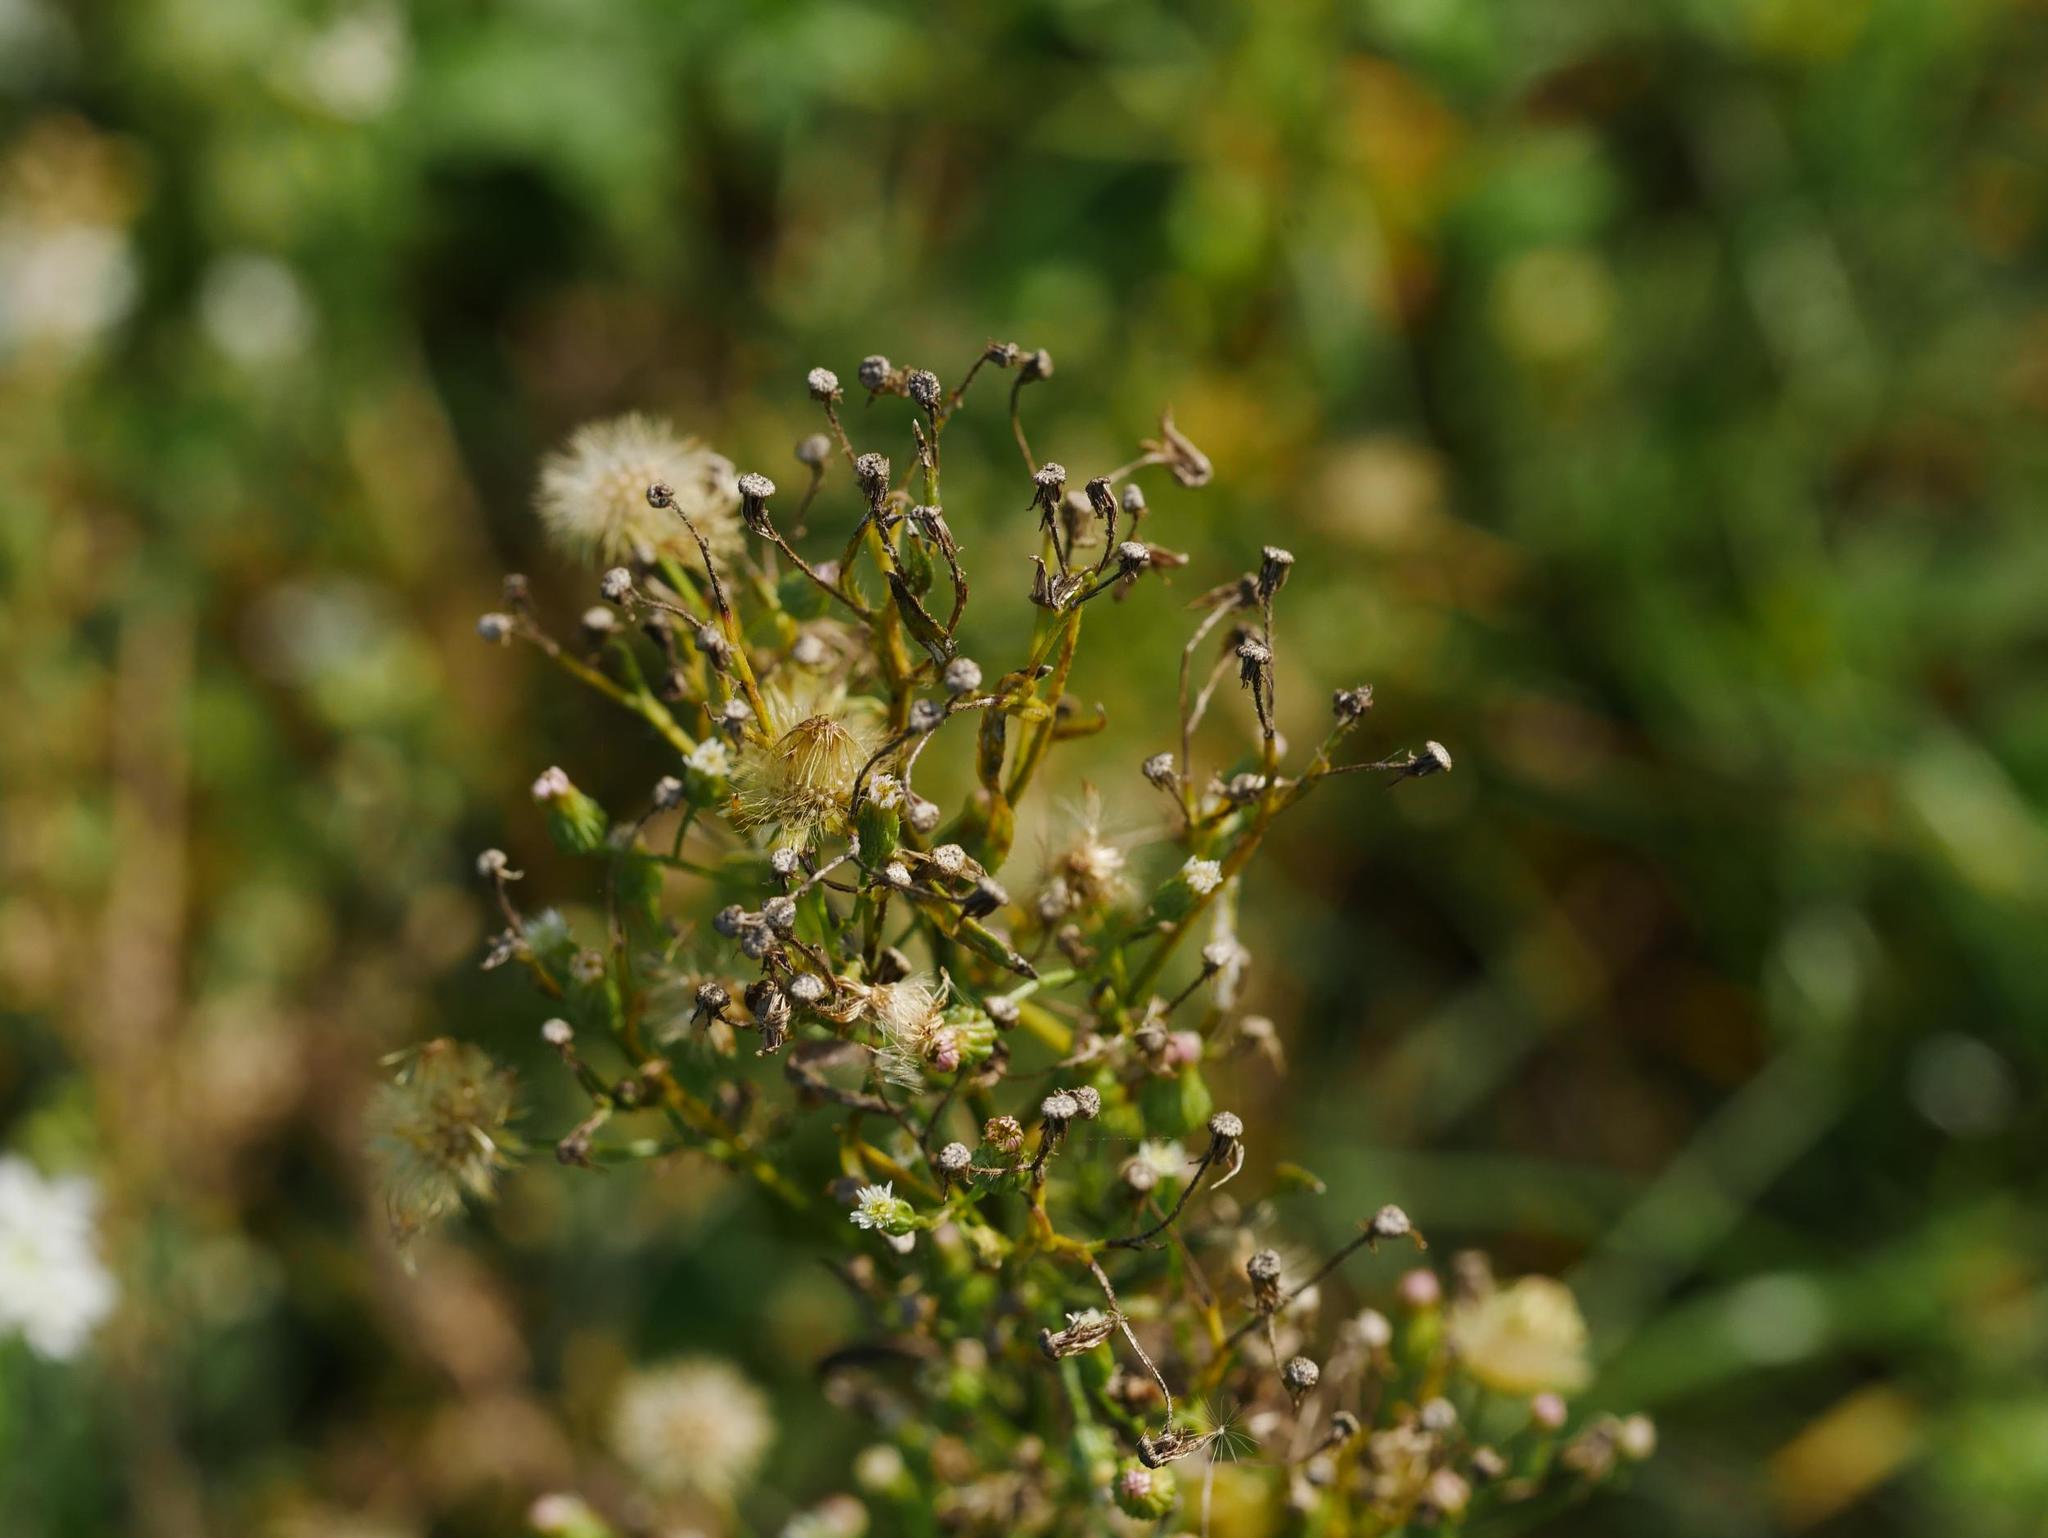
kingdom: Plantae
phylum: Tracheophyta
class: Magnoliopsida
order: Asterales
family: Asteraceae
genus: Erigeron
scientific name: Erigeron canadensis
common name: Canadian fleabane
